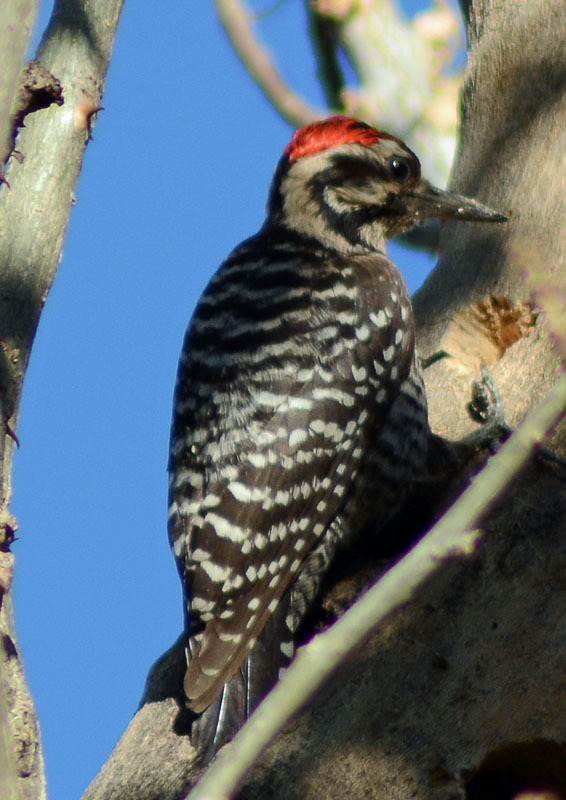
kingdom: Animalia
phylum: Chordata
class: Aves
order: Piciformes
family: Picidae
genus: Dryobates
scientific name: Dryobates scalaris
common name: Ladder-backed woodpecker
